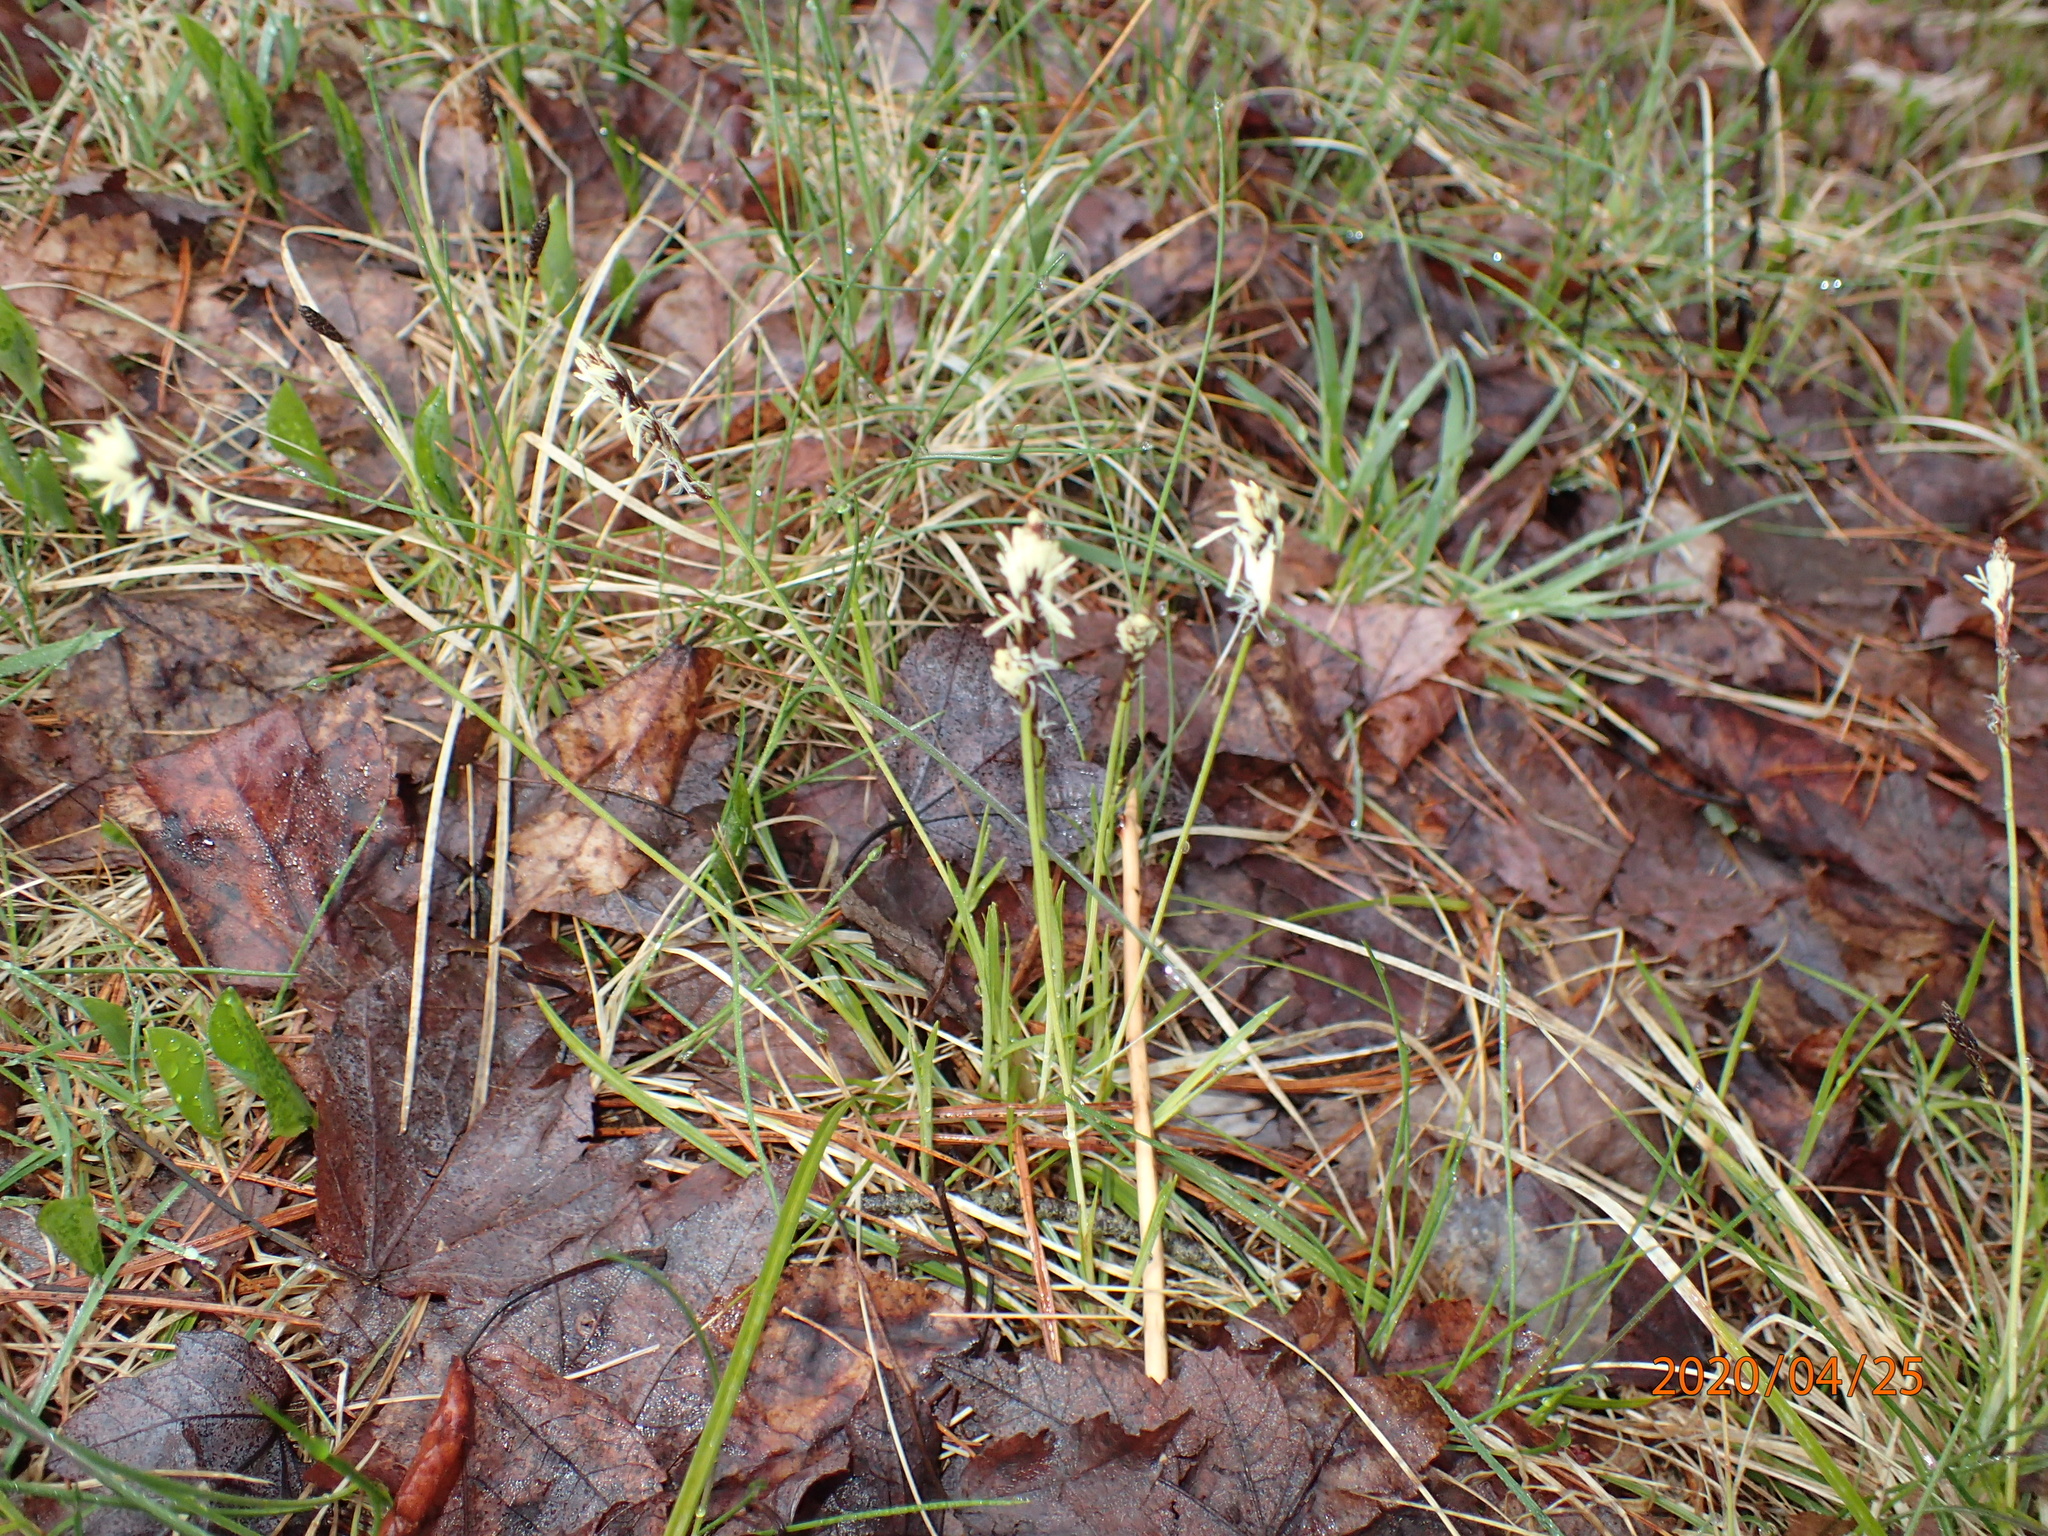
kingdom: Plantae
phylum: Tracheophyta
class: Liliopsida
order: Poales
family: Cyperaceae
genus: Carex
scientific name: Carex pensylvanica
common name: Common oak sedge
